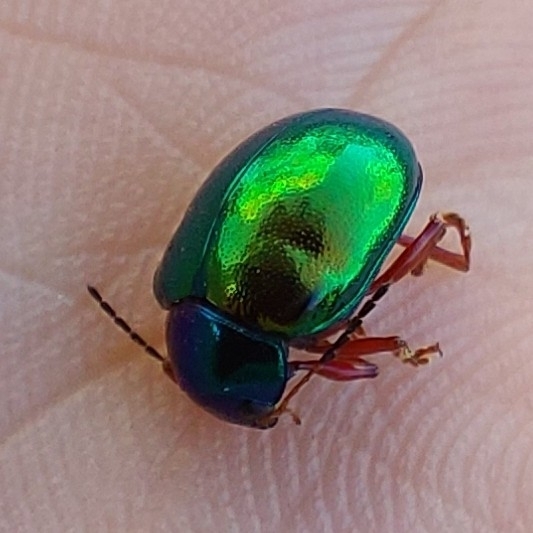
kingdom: Animalia
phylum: Arthropoda
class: Insecta
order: Coleoptera
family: Chrysomelidae
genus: Iphimeis
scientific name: Iphimeis
